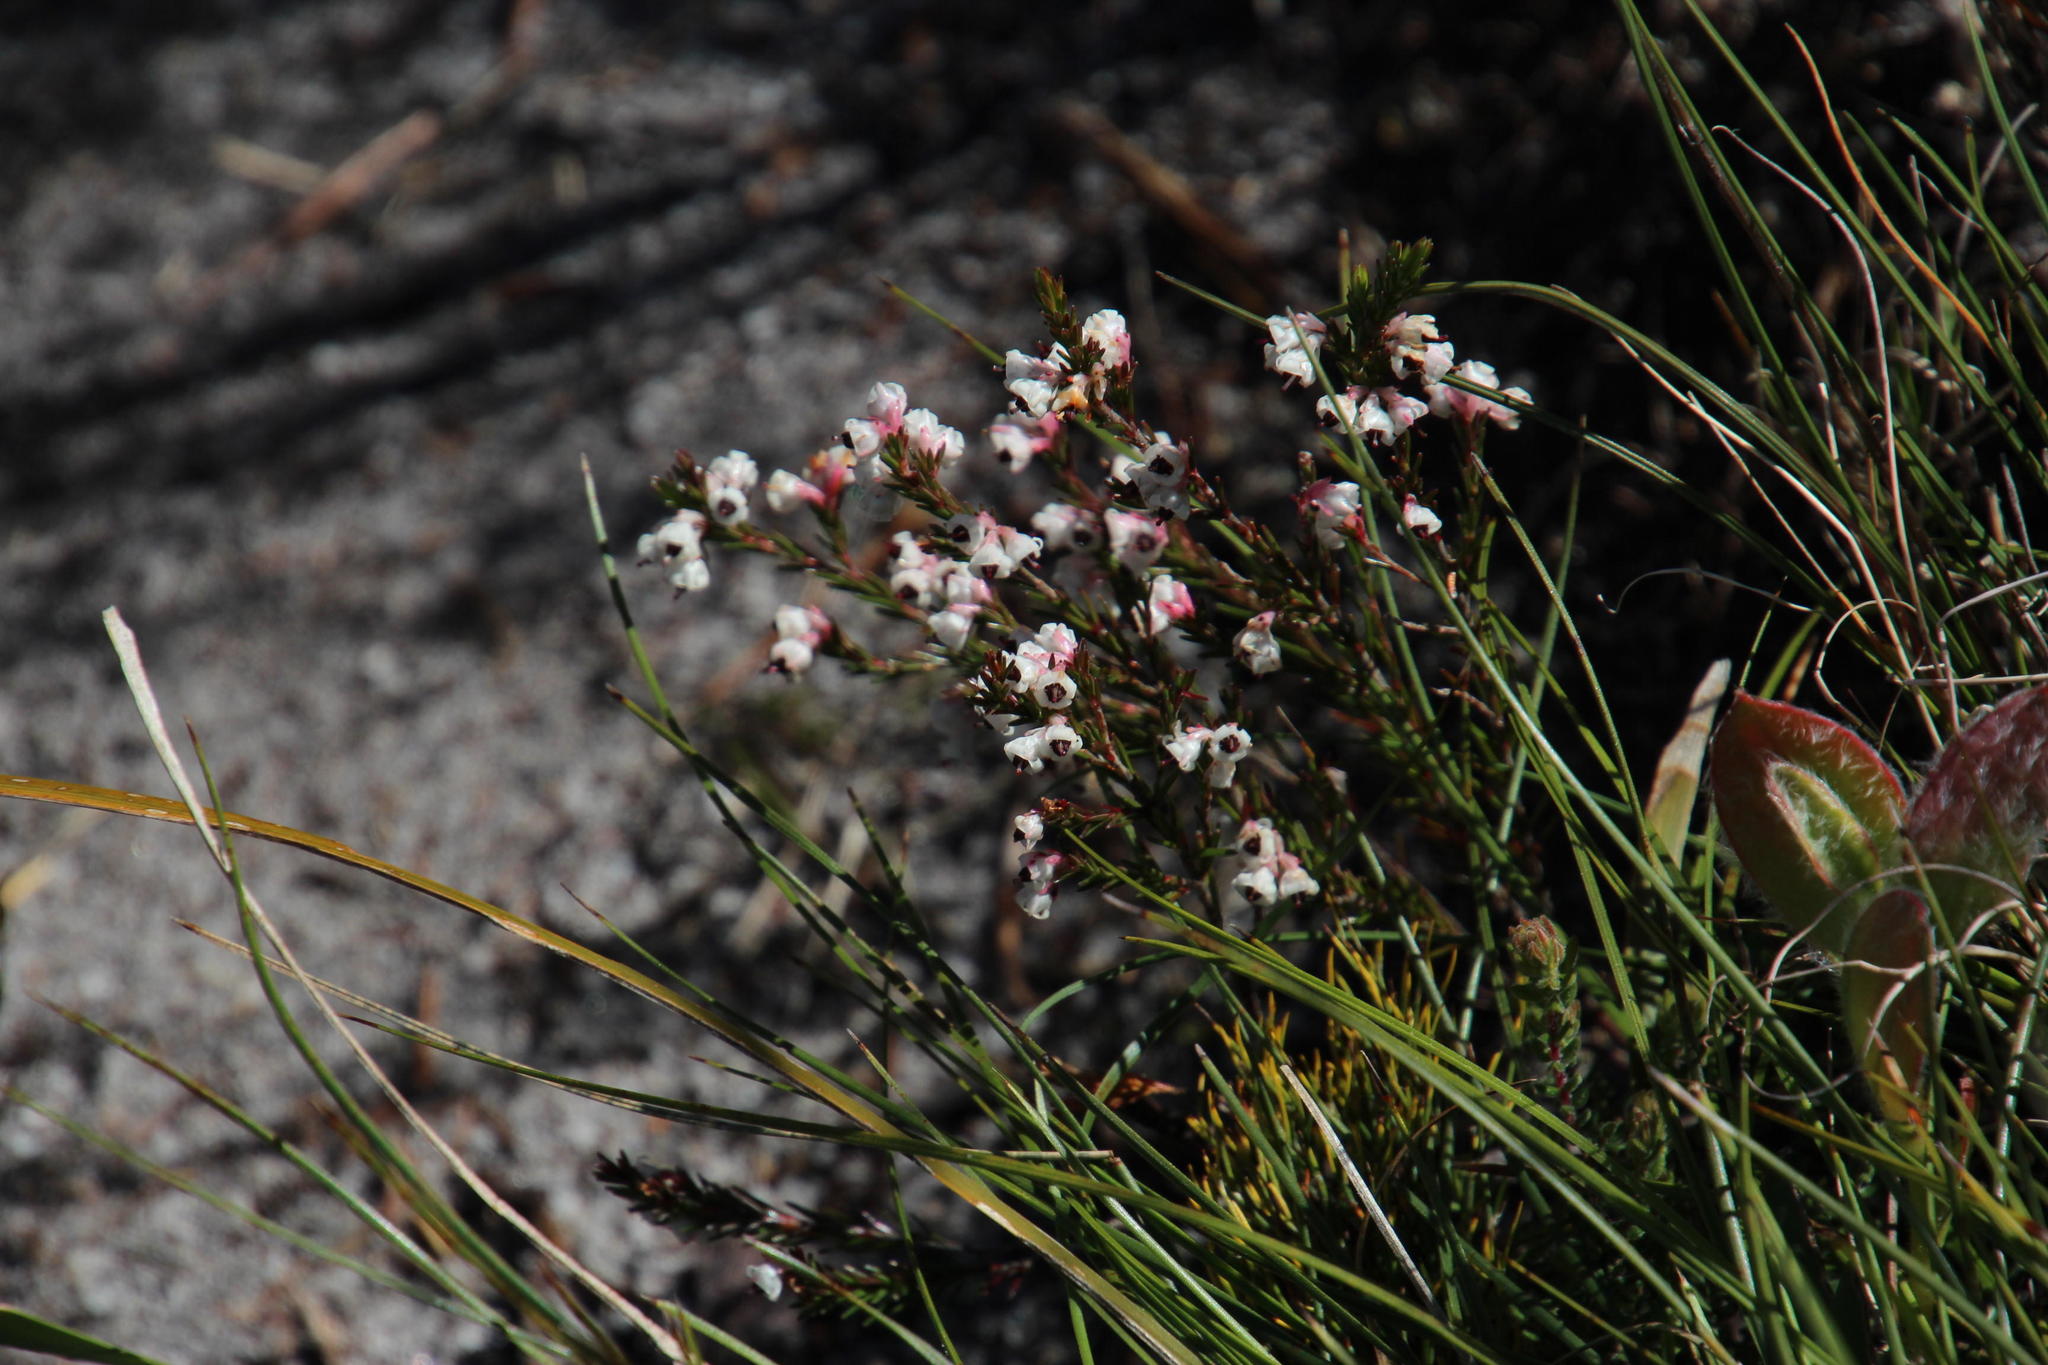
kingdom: Plantae
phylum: Tracheophyta
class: Magnoliopsida
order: Ericales
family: Ericaceae
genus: Erica
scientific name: Erica calycina
